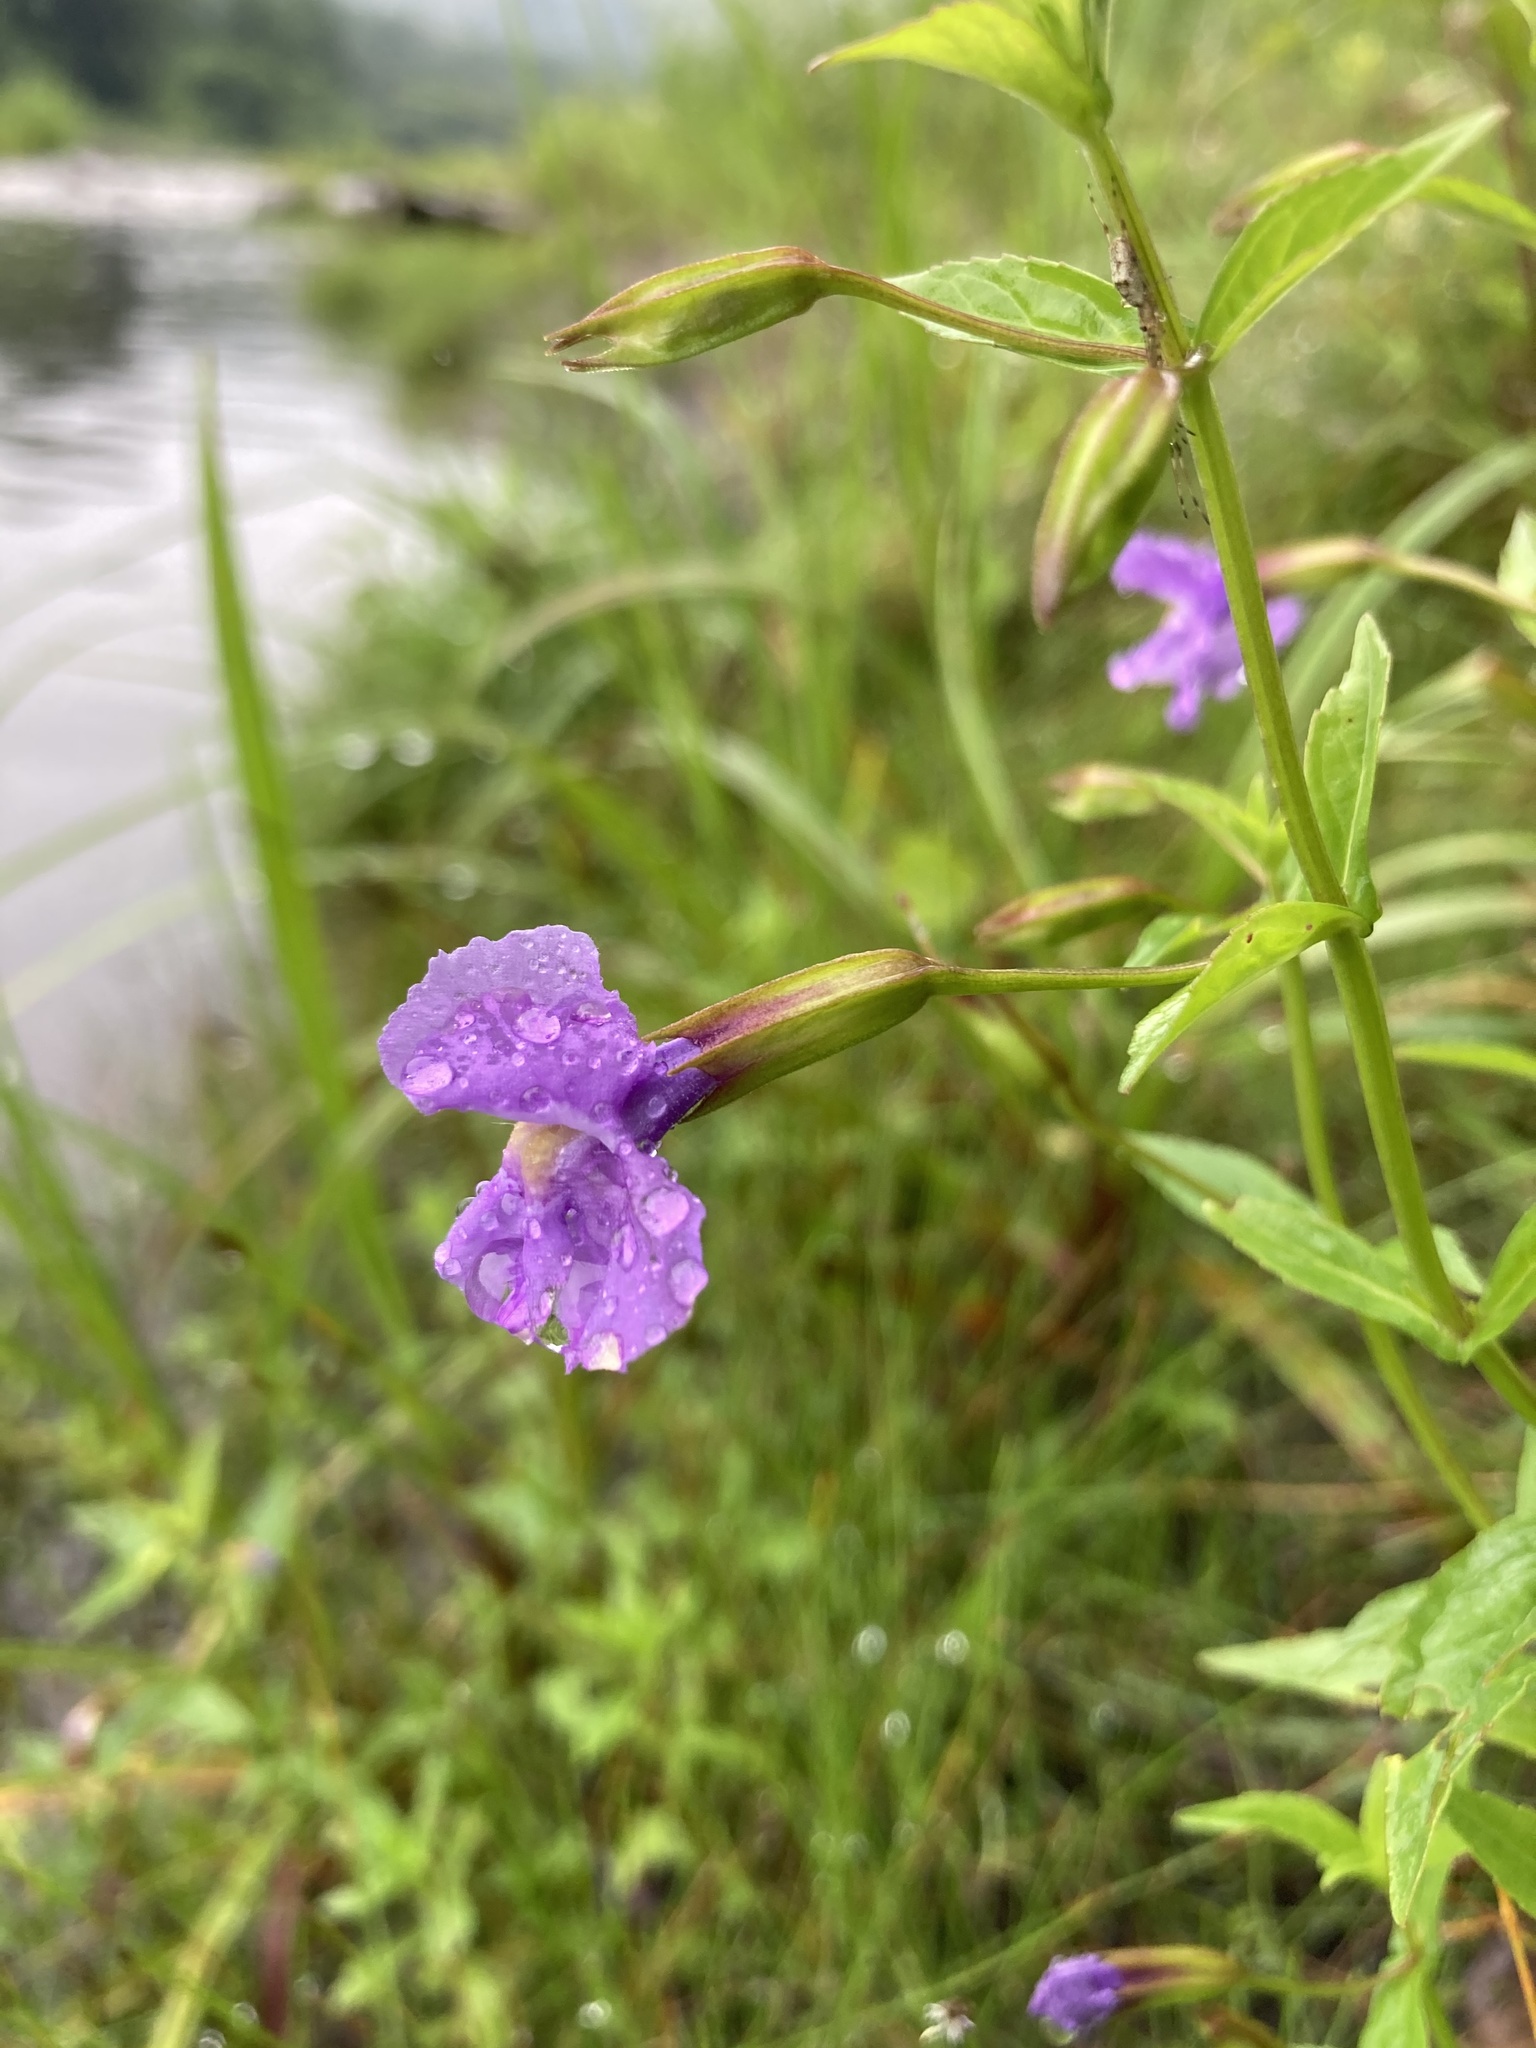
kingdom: Plantae
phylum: Tracheophyta
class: Magnoliopsida
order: Lamiales
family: Phrymaceae
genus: Mimulus
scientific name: Mimulus ringens
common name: Allegheny monkeyflower
